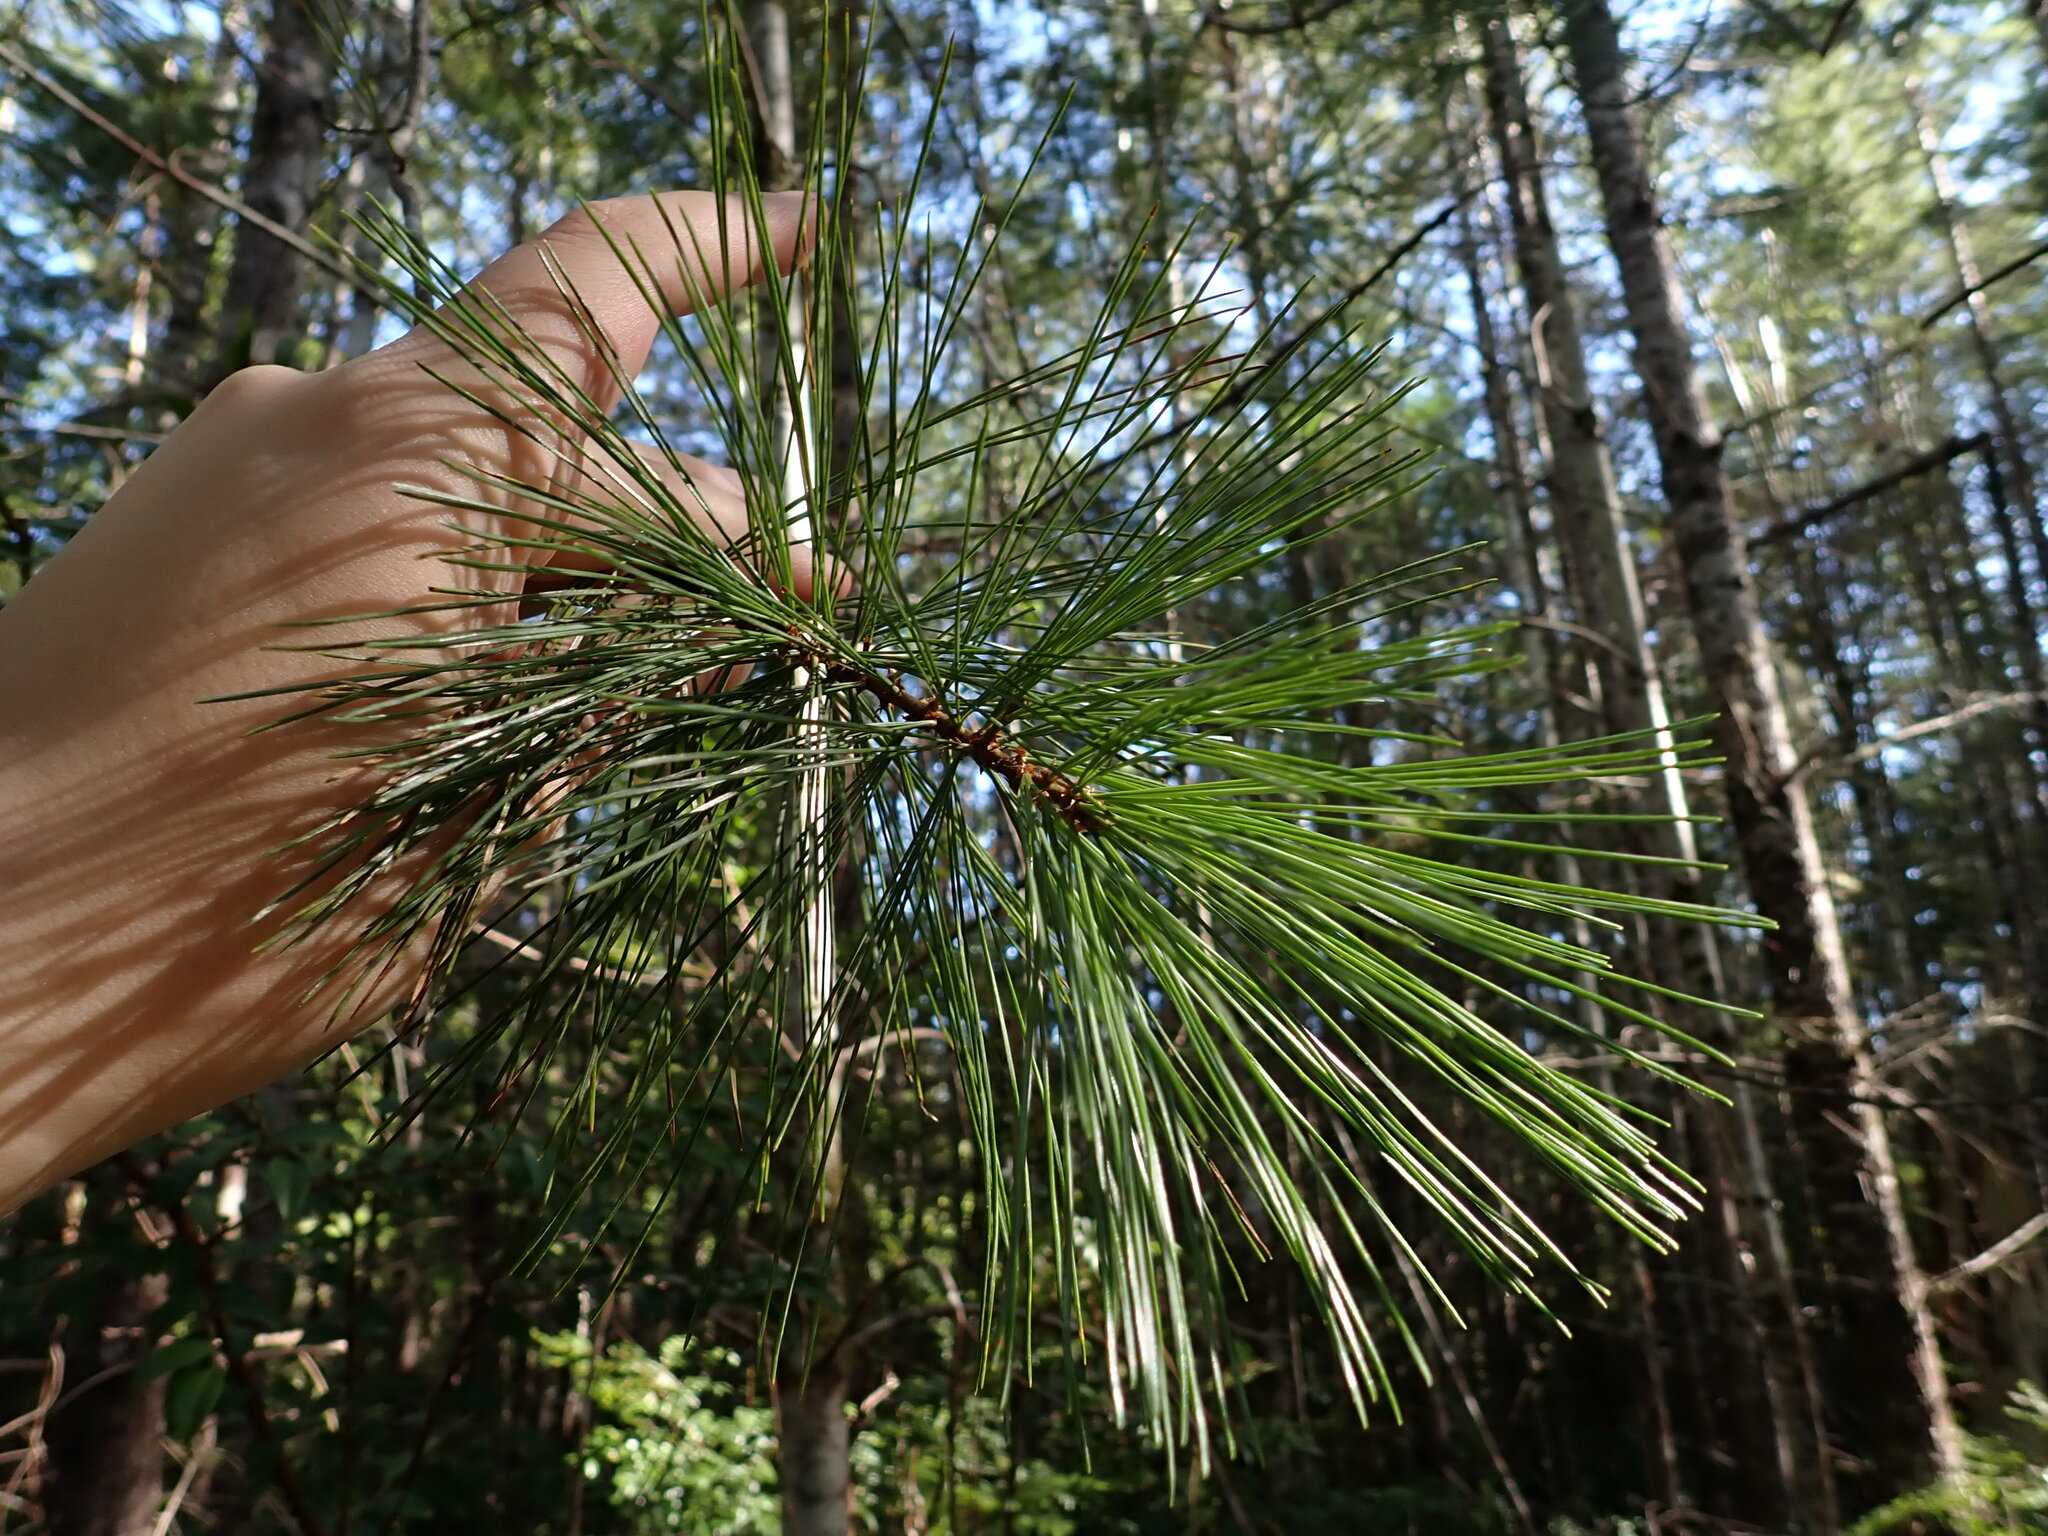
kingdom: Plantae
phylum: Tracheophyta
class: Pinopsida
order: Pinales
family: Pinaceae
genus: Pinus
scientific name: Pinus monticola
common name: Western white pine
